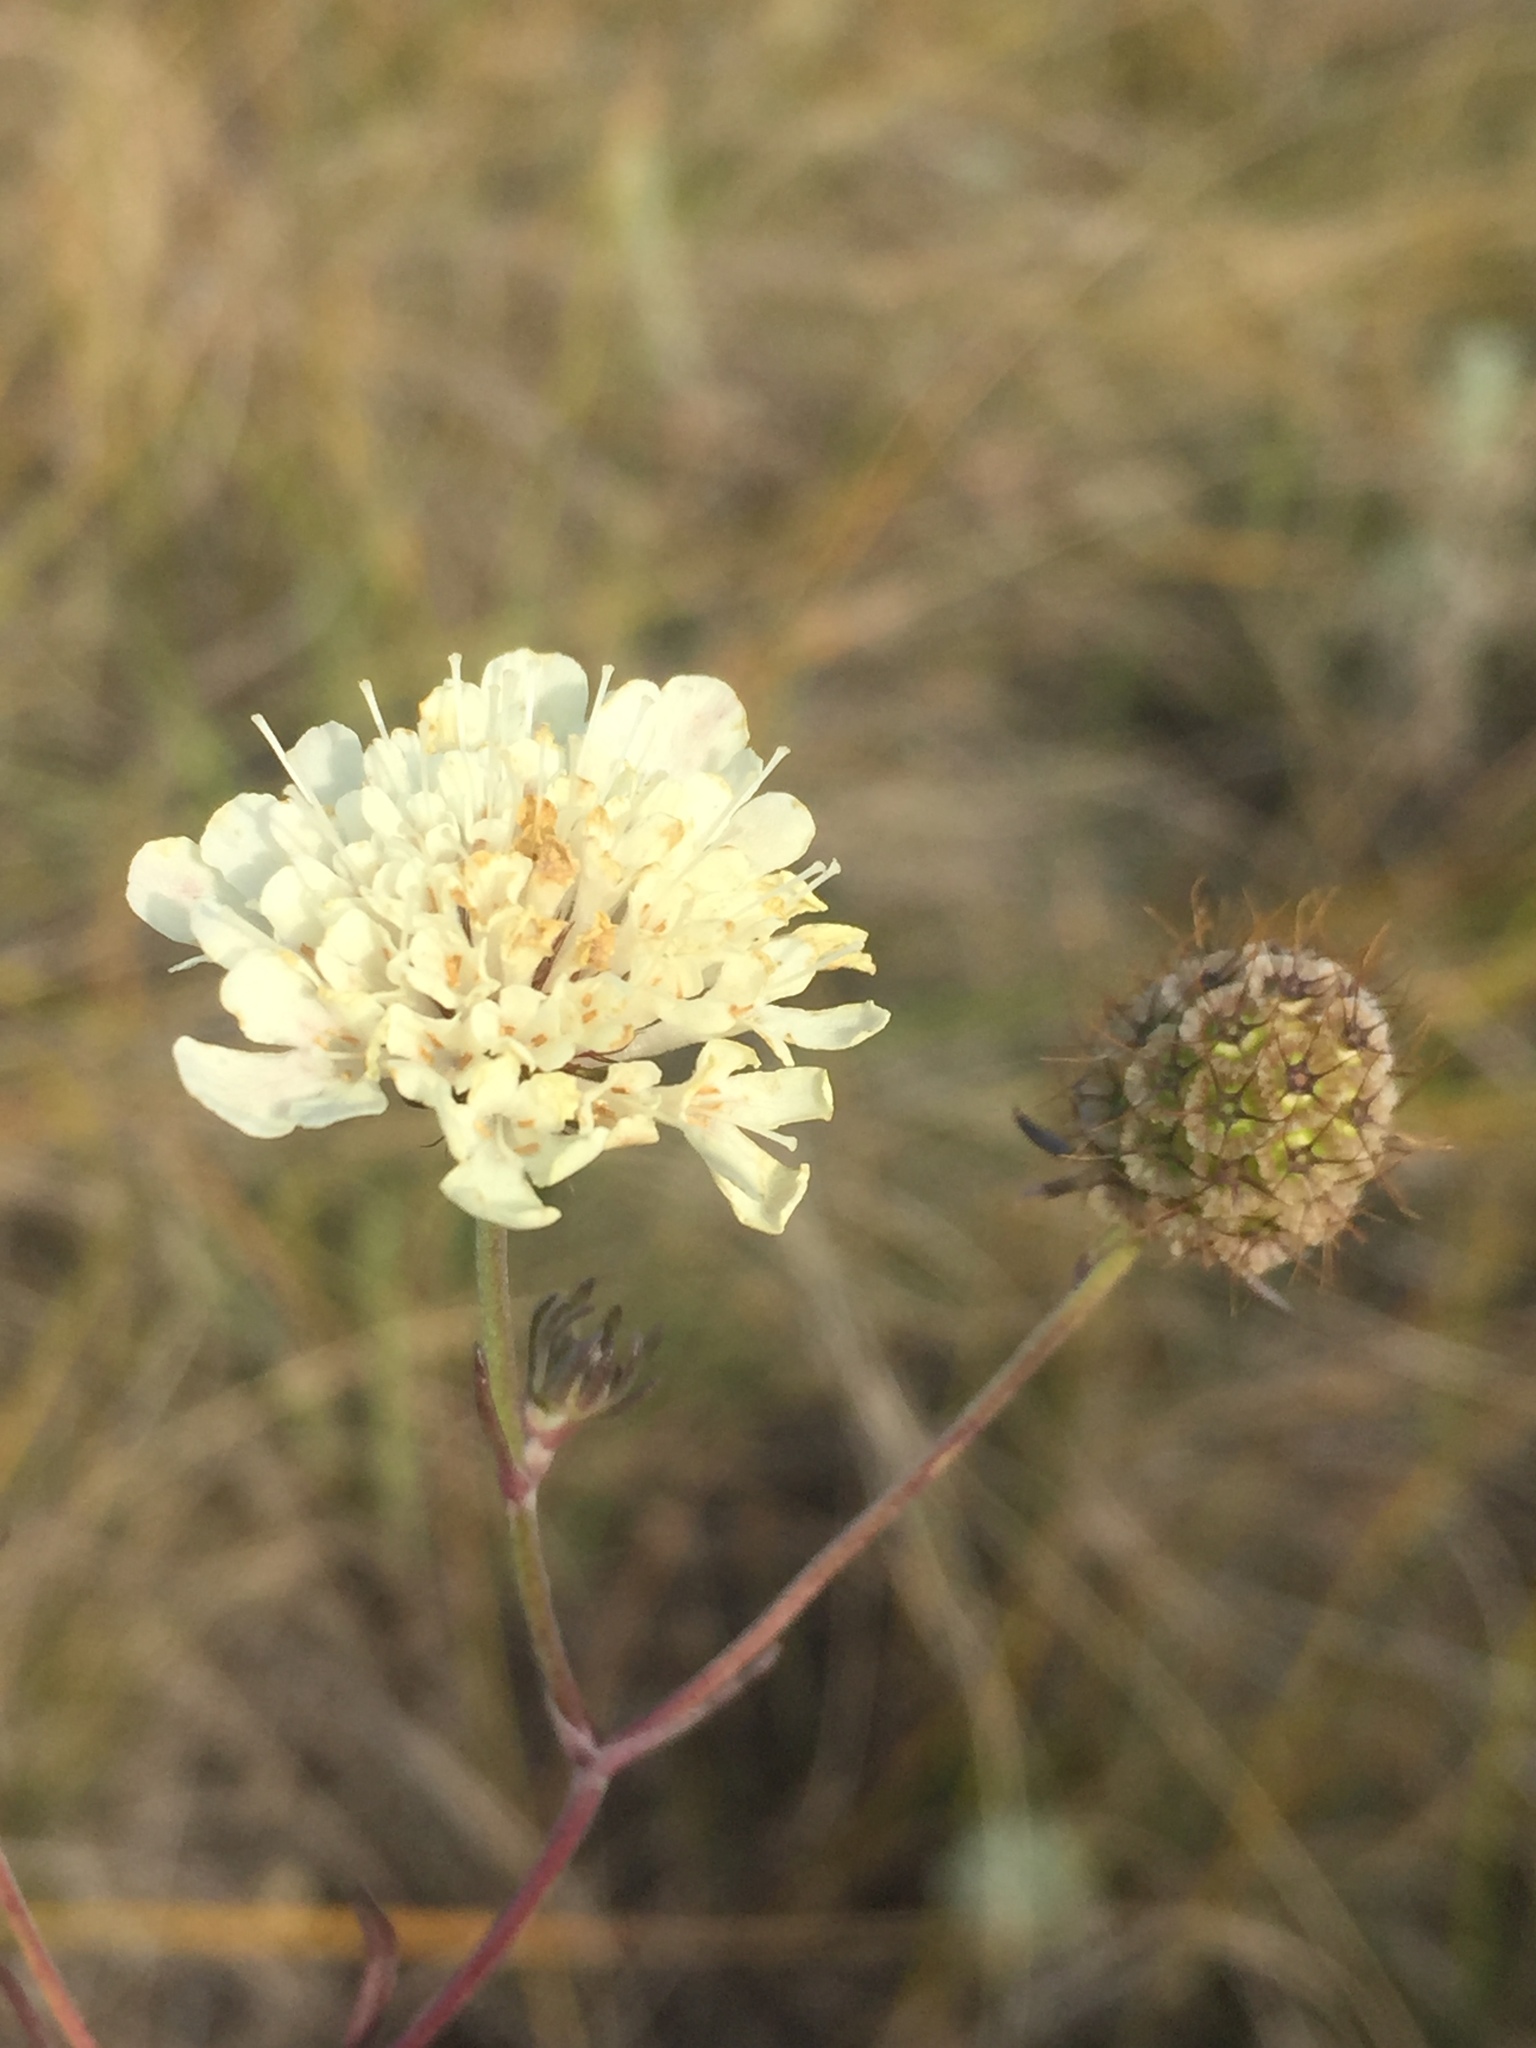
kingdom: Plantae
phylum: Tracheophyta
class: Magnoliopsida
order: Dipsacales
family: Caprifoliaceae
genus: Scabiosa
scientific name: Scabiosa ochroleuca
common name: Cream pincushions
